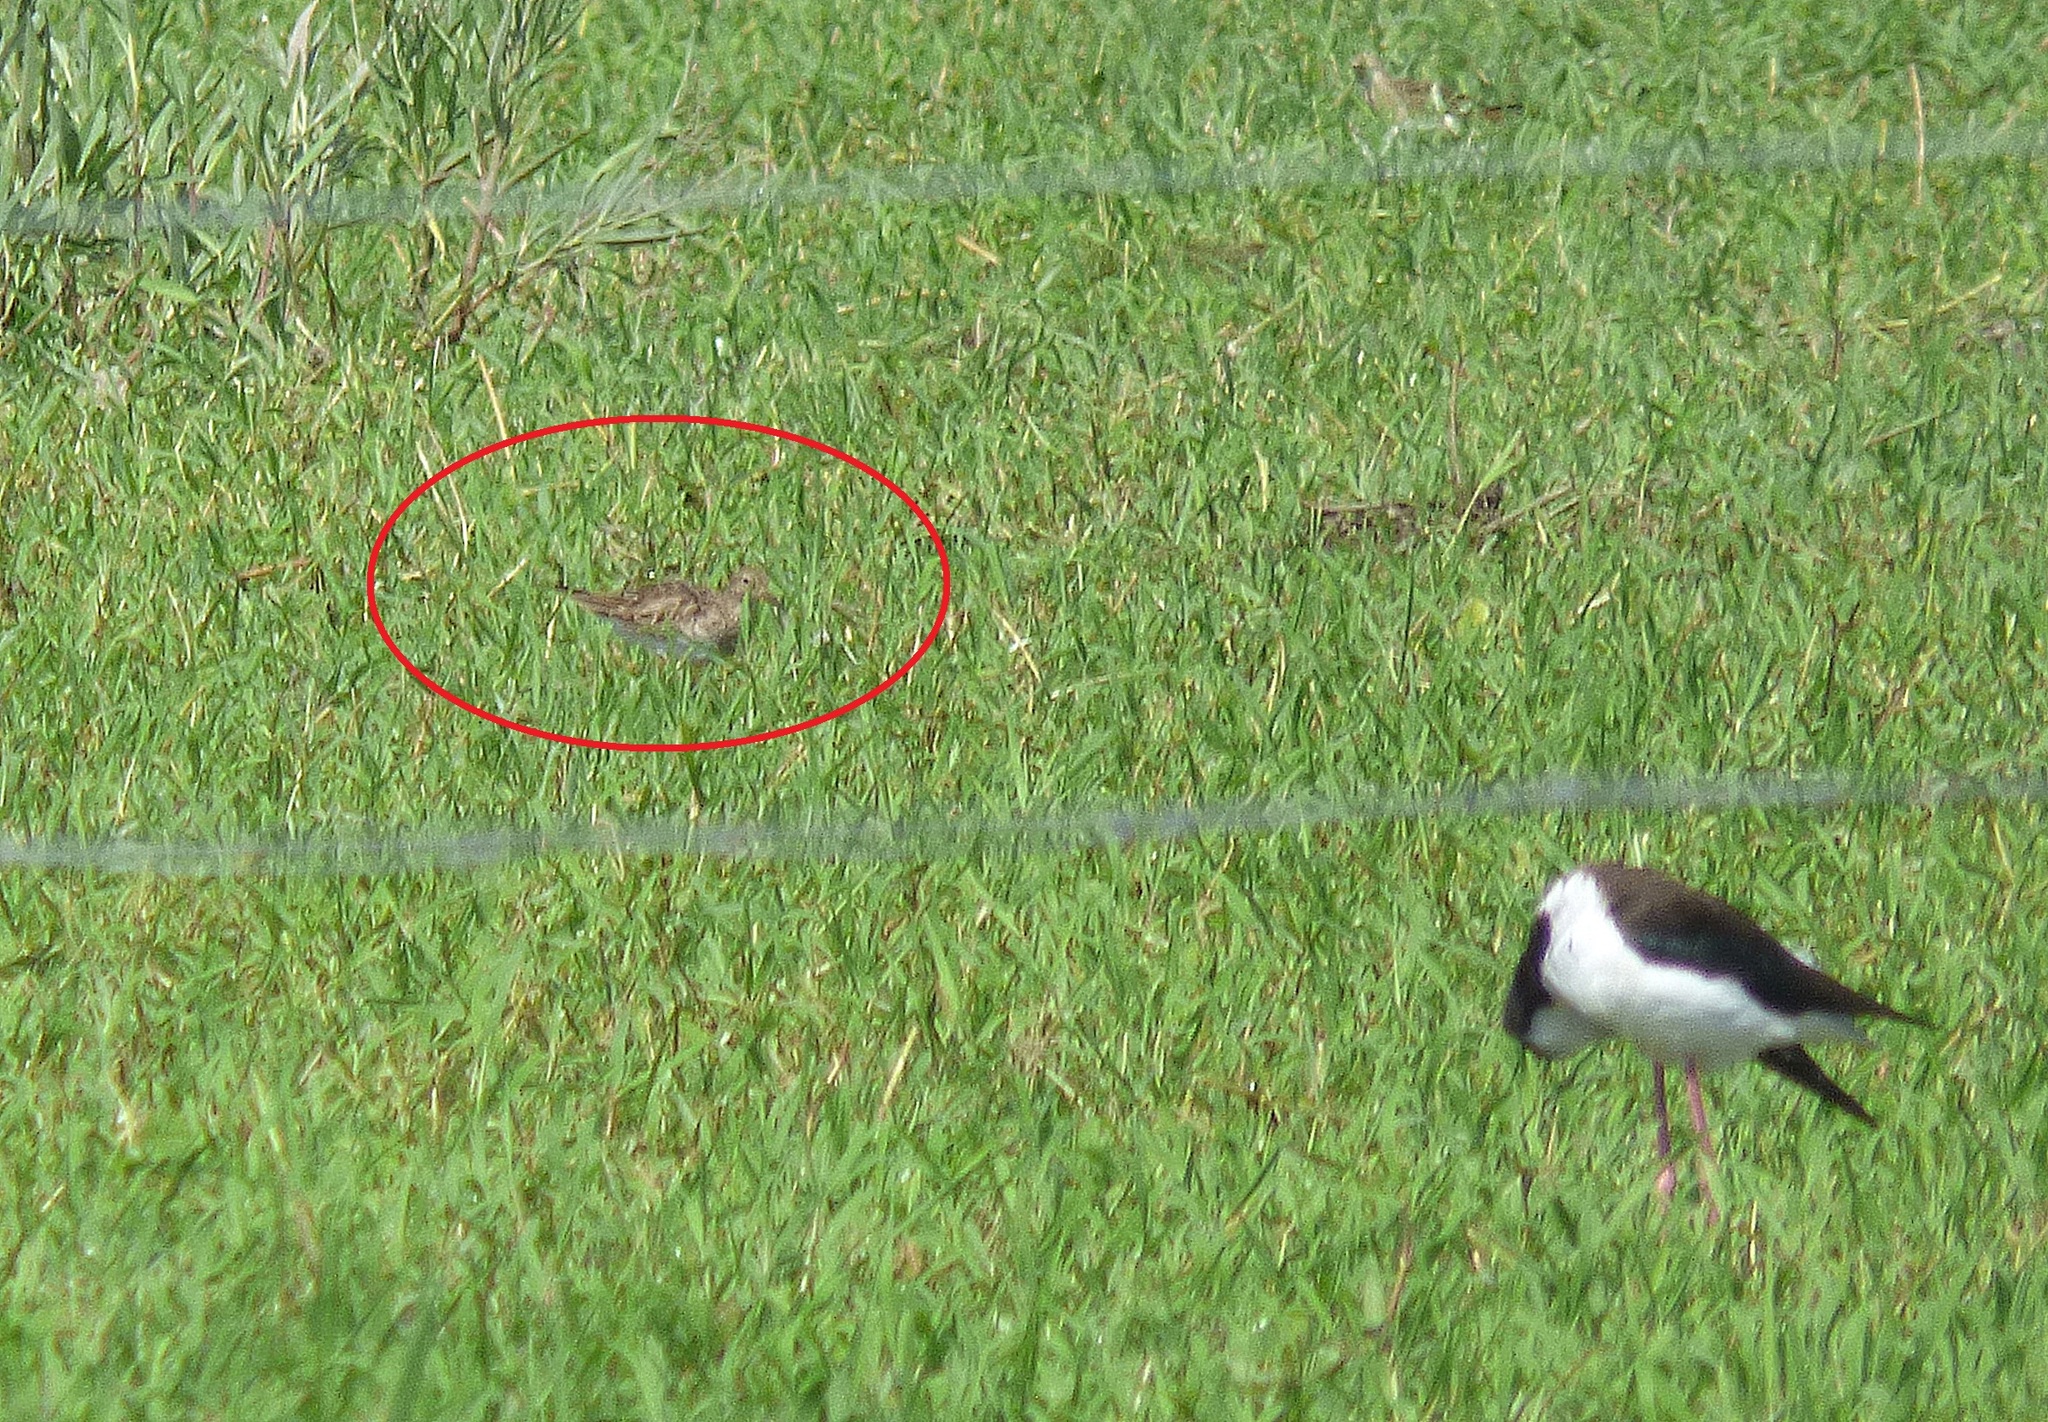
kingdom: Animalia
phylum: Chordata
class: Aves
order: Charadriiformes
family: Scolopacidae
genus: Calidris
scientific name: Calidris melanotos
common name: Pectoral sandpiper
